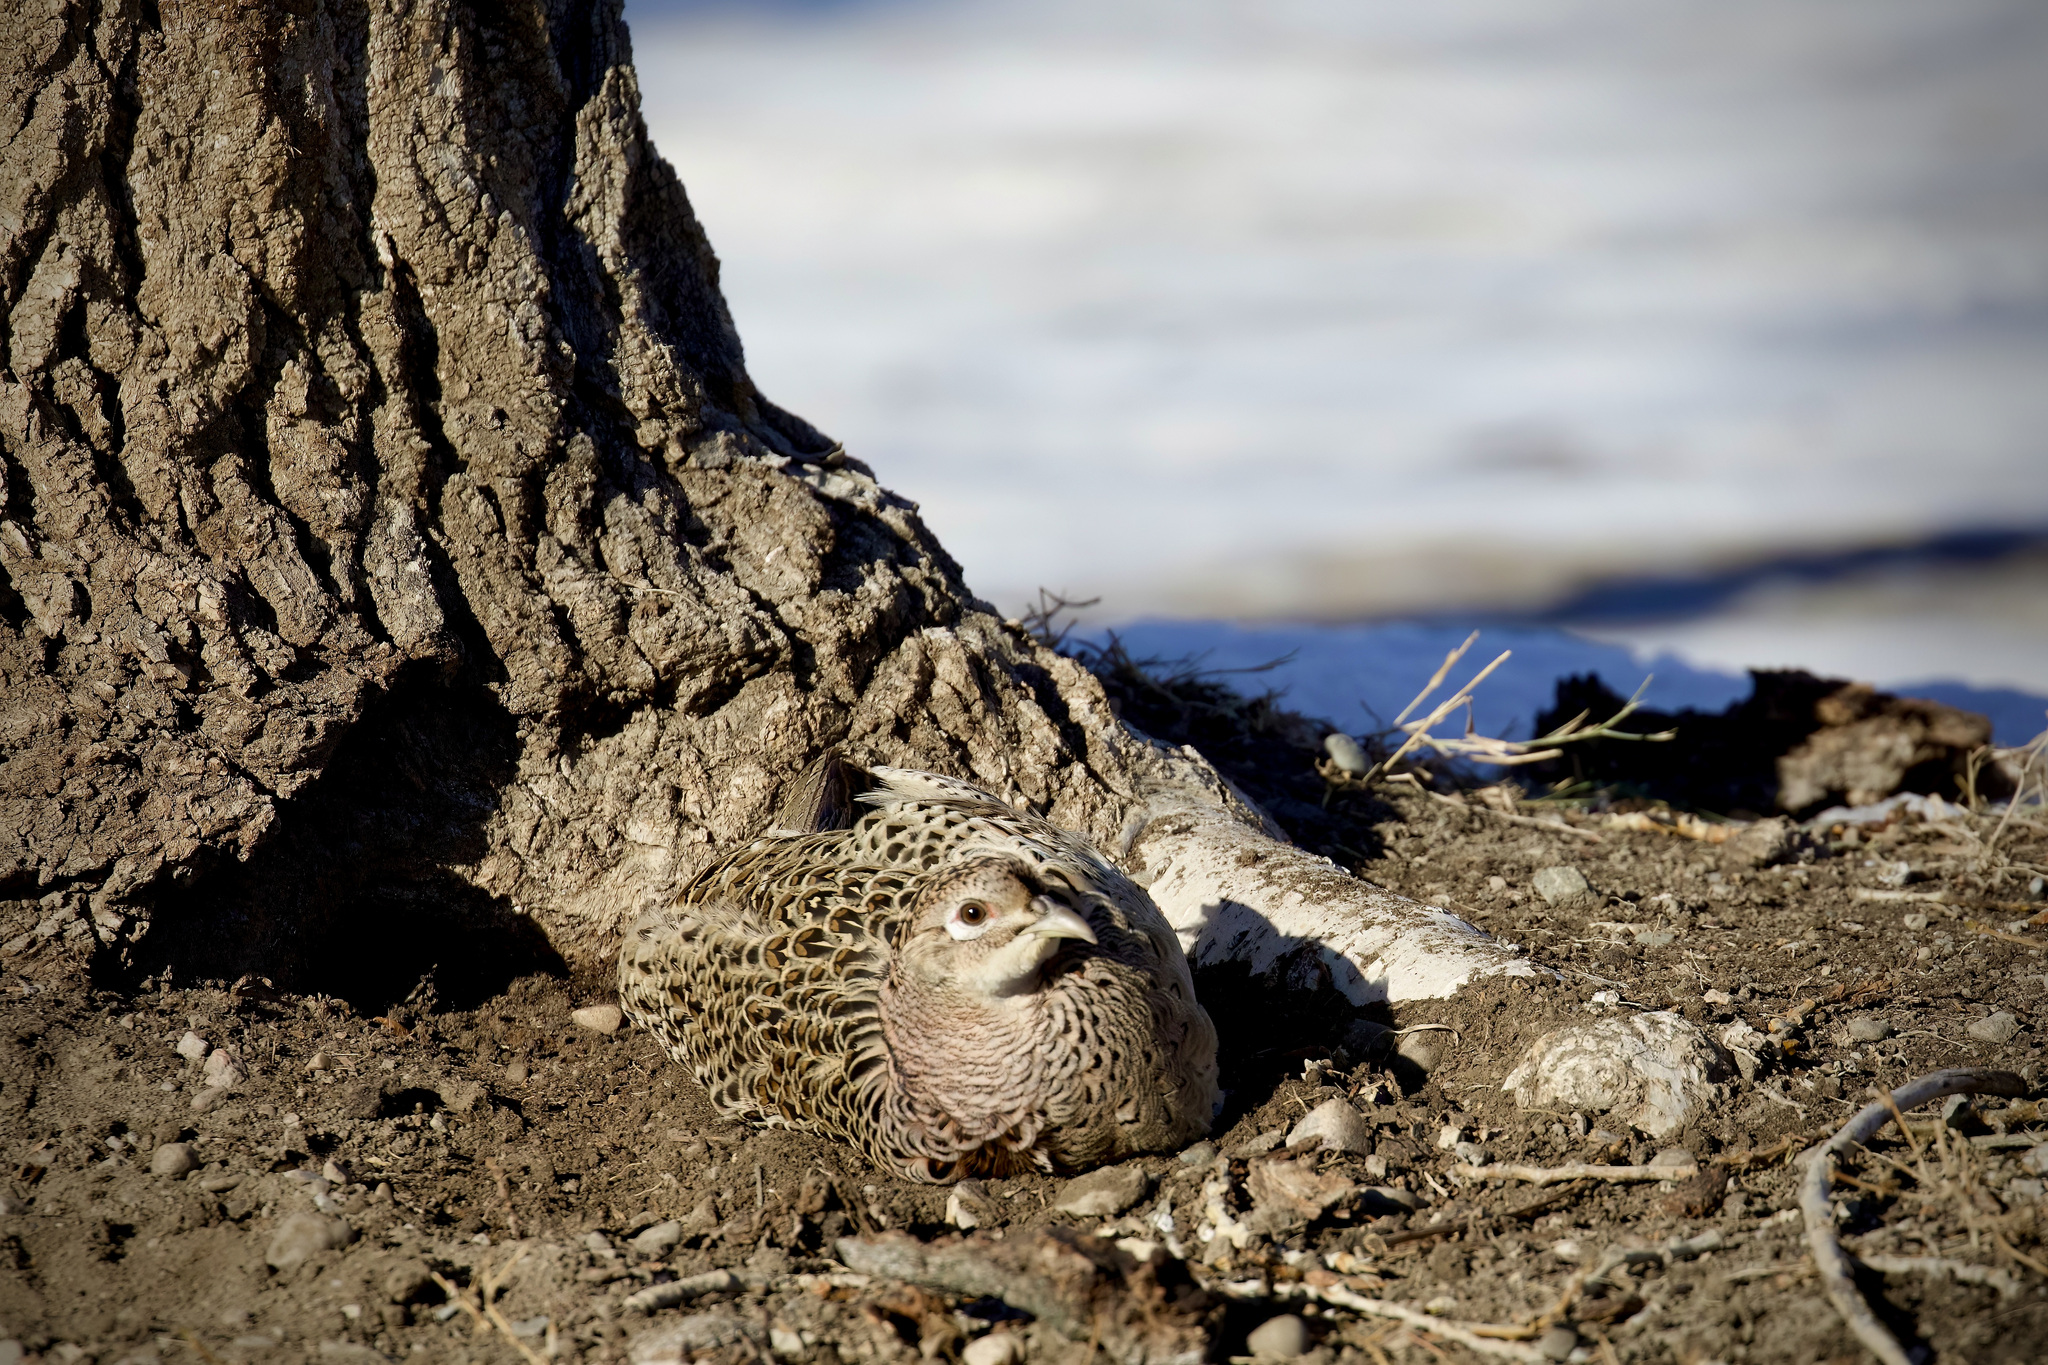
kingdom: Animalia
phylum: Chordata
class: Aves
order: Galliformes
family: Phasianidae
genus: Phasianus
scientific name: Phasianus colchicus
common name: Common pheasant
